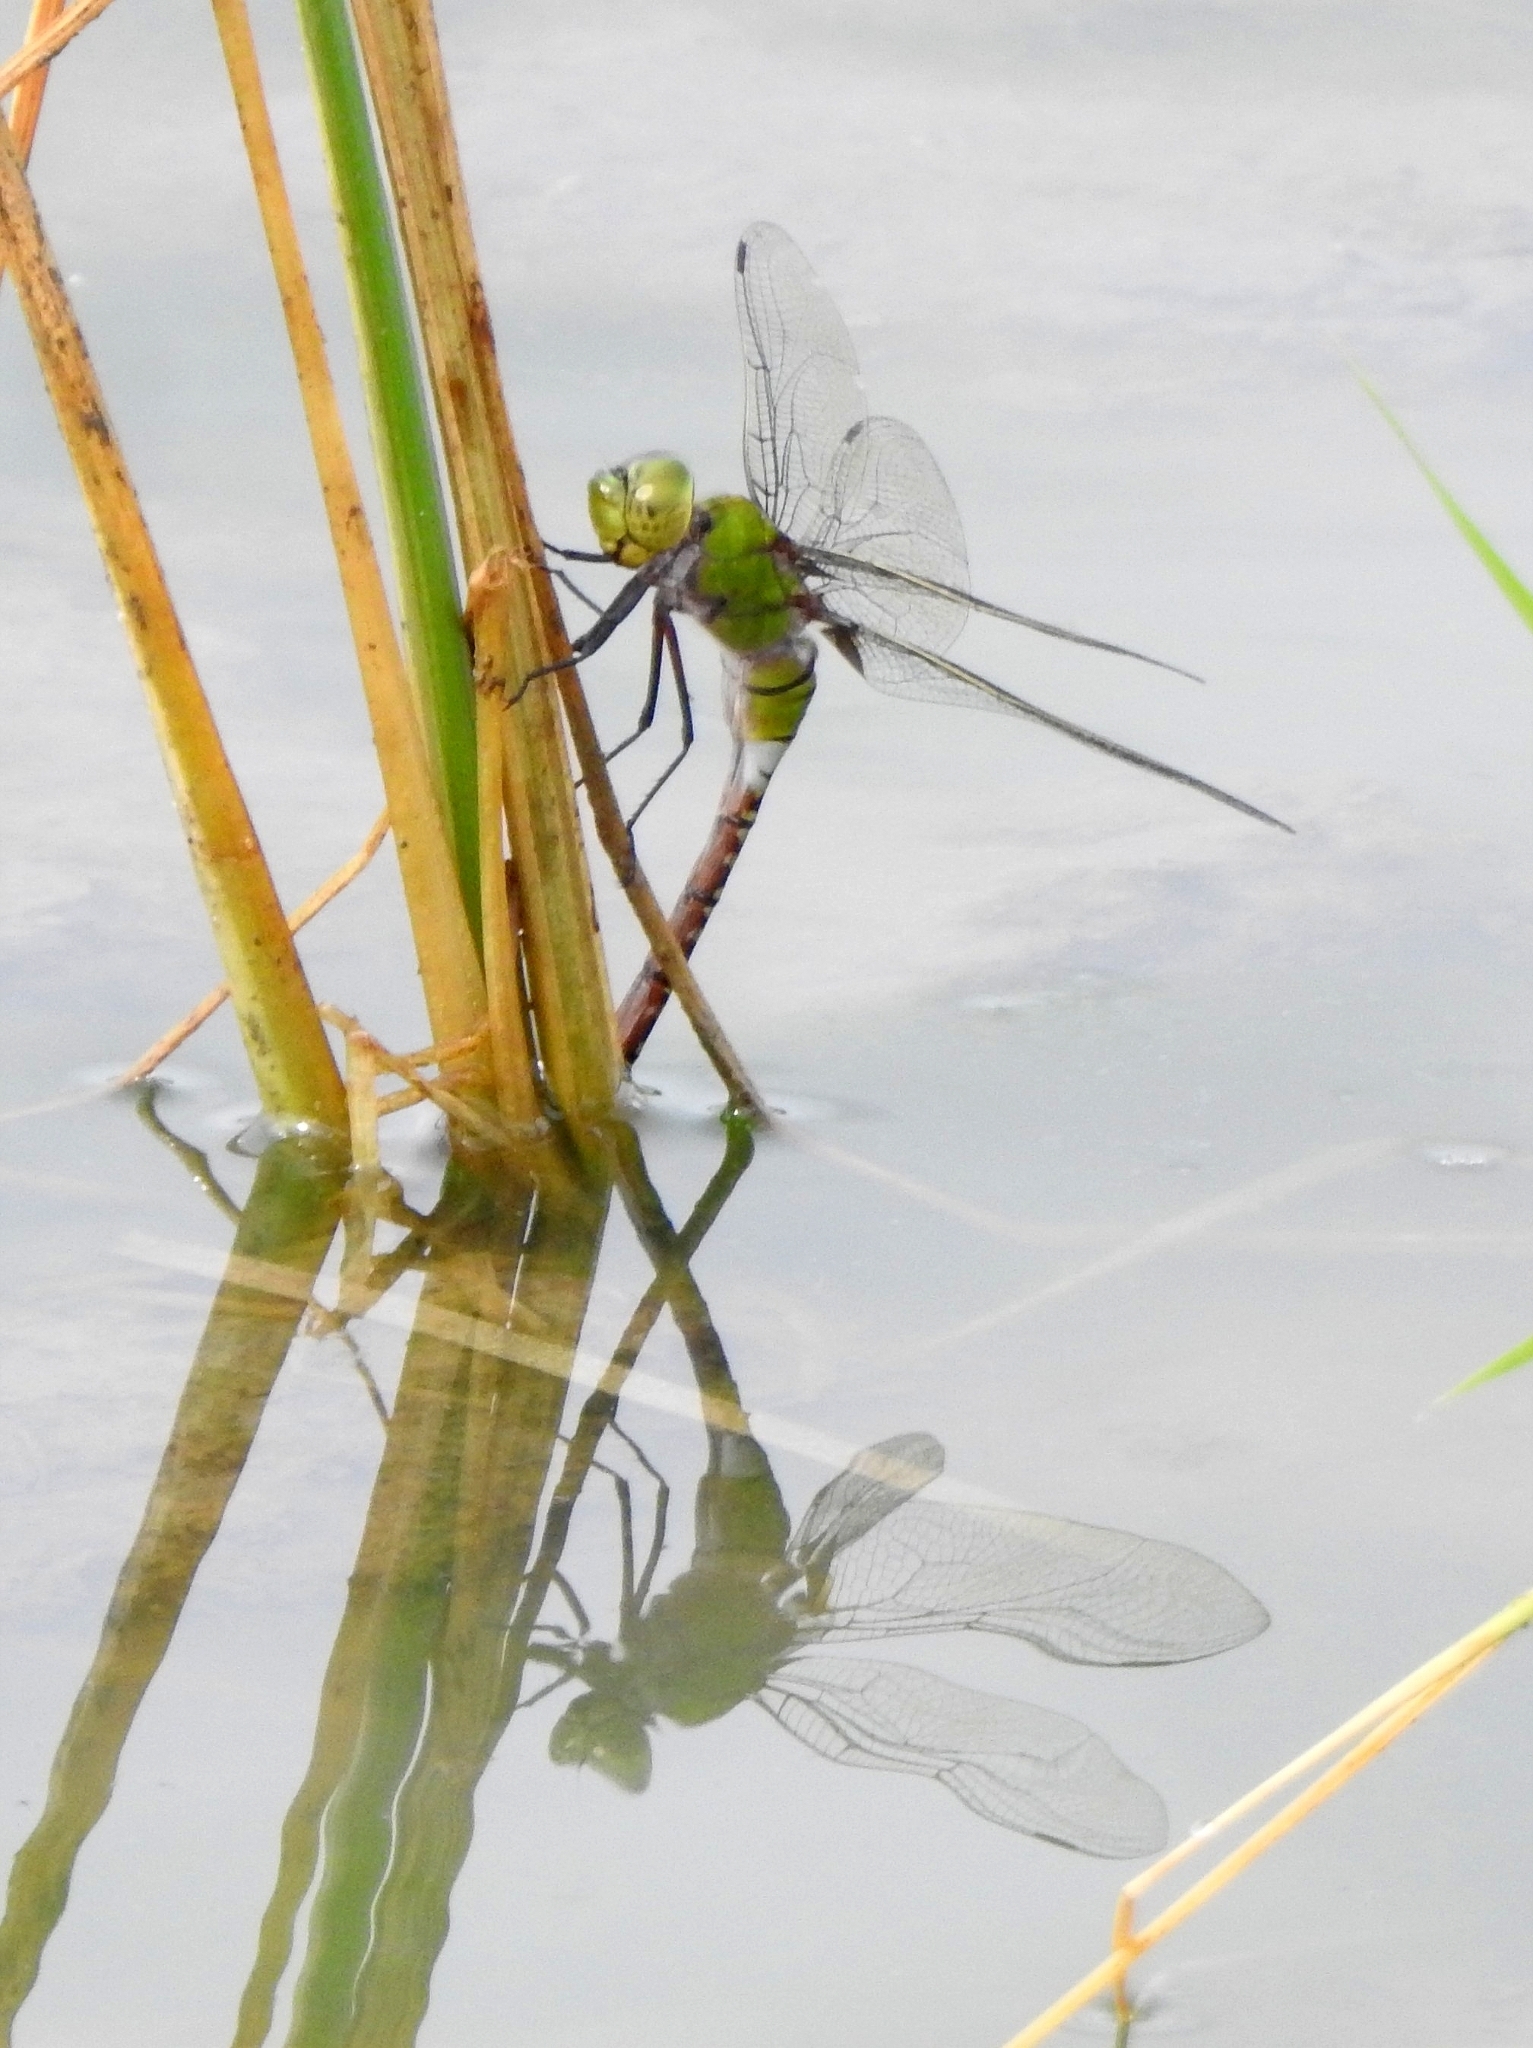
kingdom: Animalia
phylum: Arthropoda
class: Insecta
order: Odonata
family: Aeshnidae
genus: Anax
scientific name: Anax guttatus
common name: Emperor
